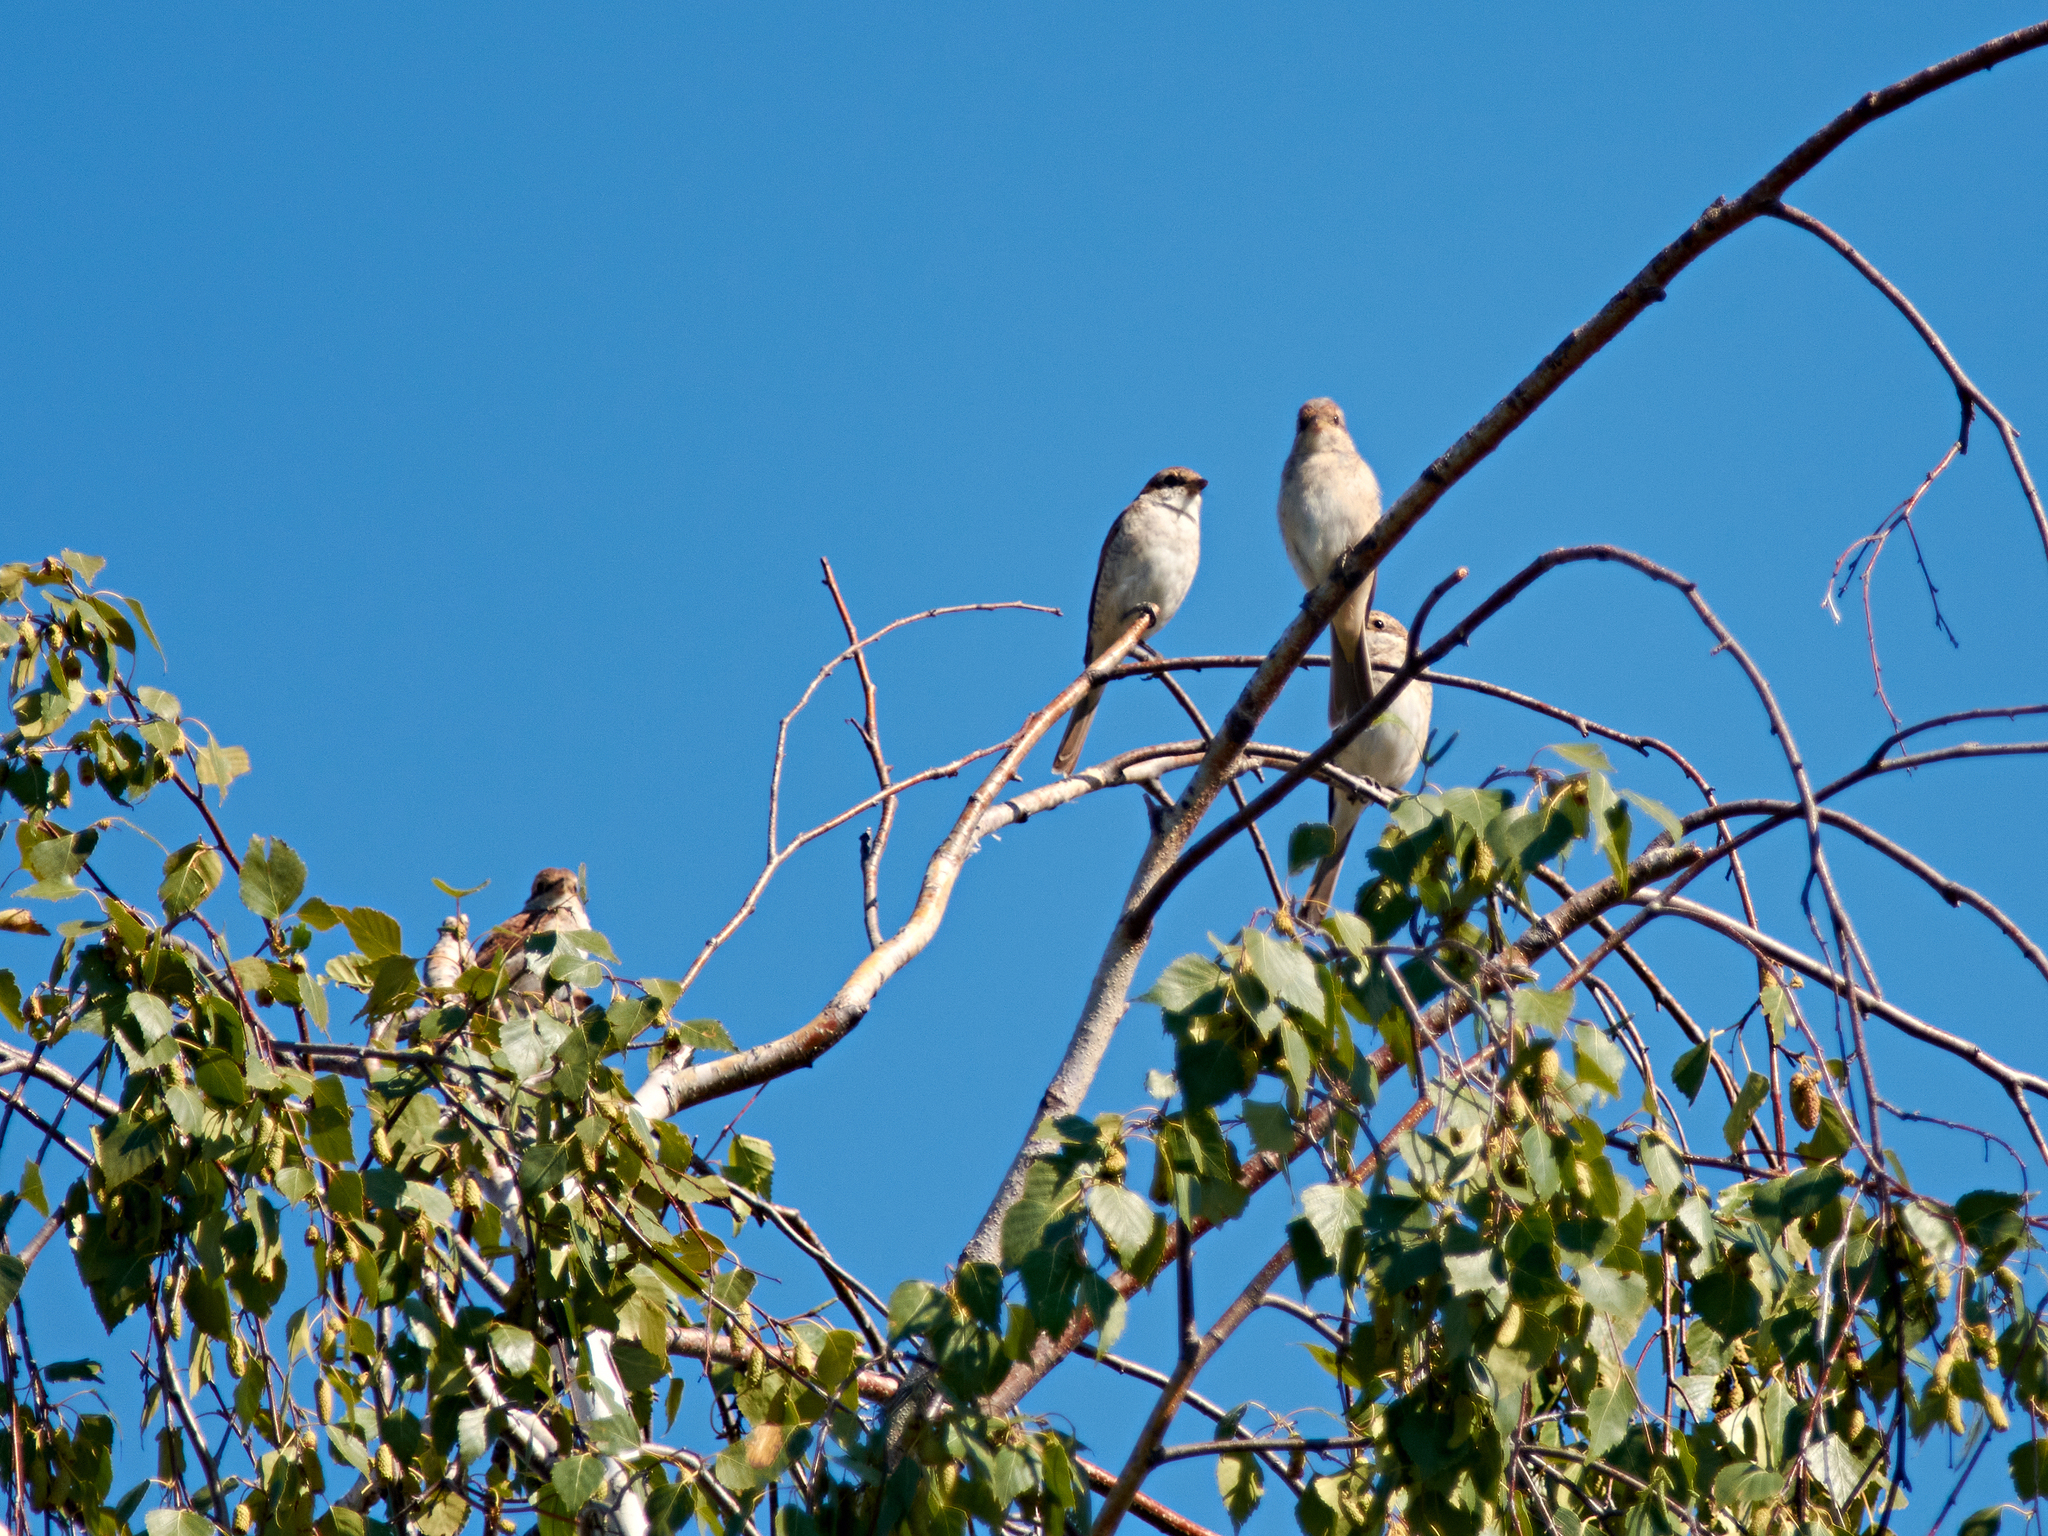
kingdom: Animalia
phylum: Chordata
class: Aves
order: Passeriformes
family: Laniidae
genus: Lanius
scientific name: Lanius collurio
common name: Red-backed shrike
